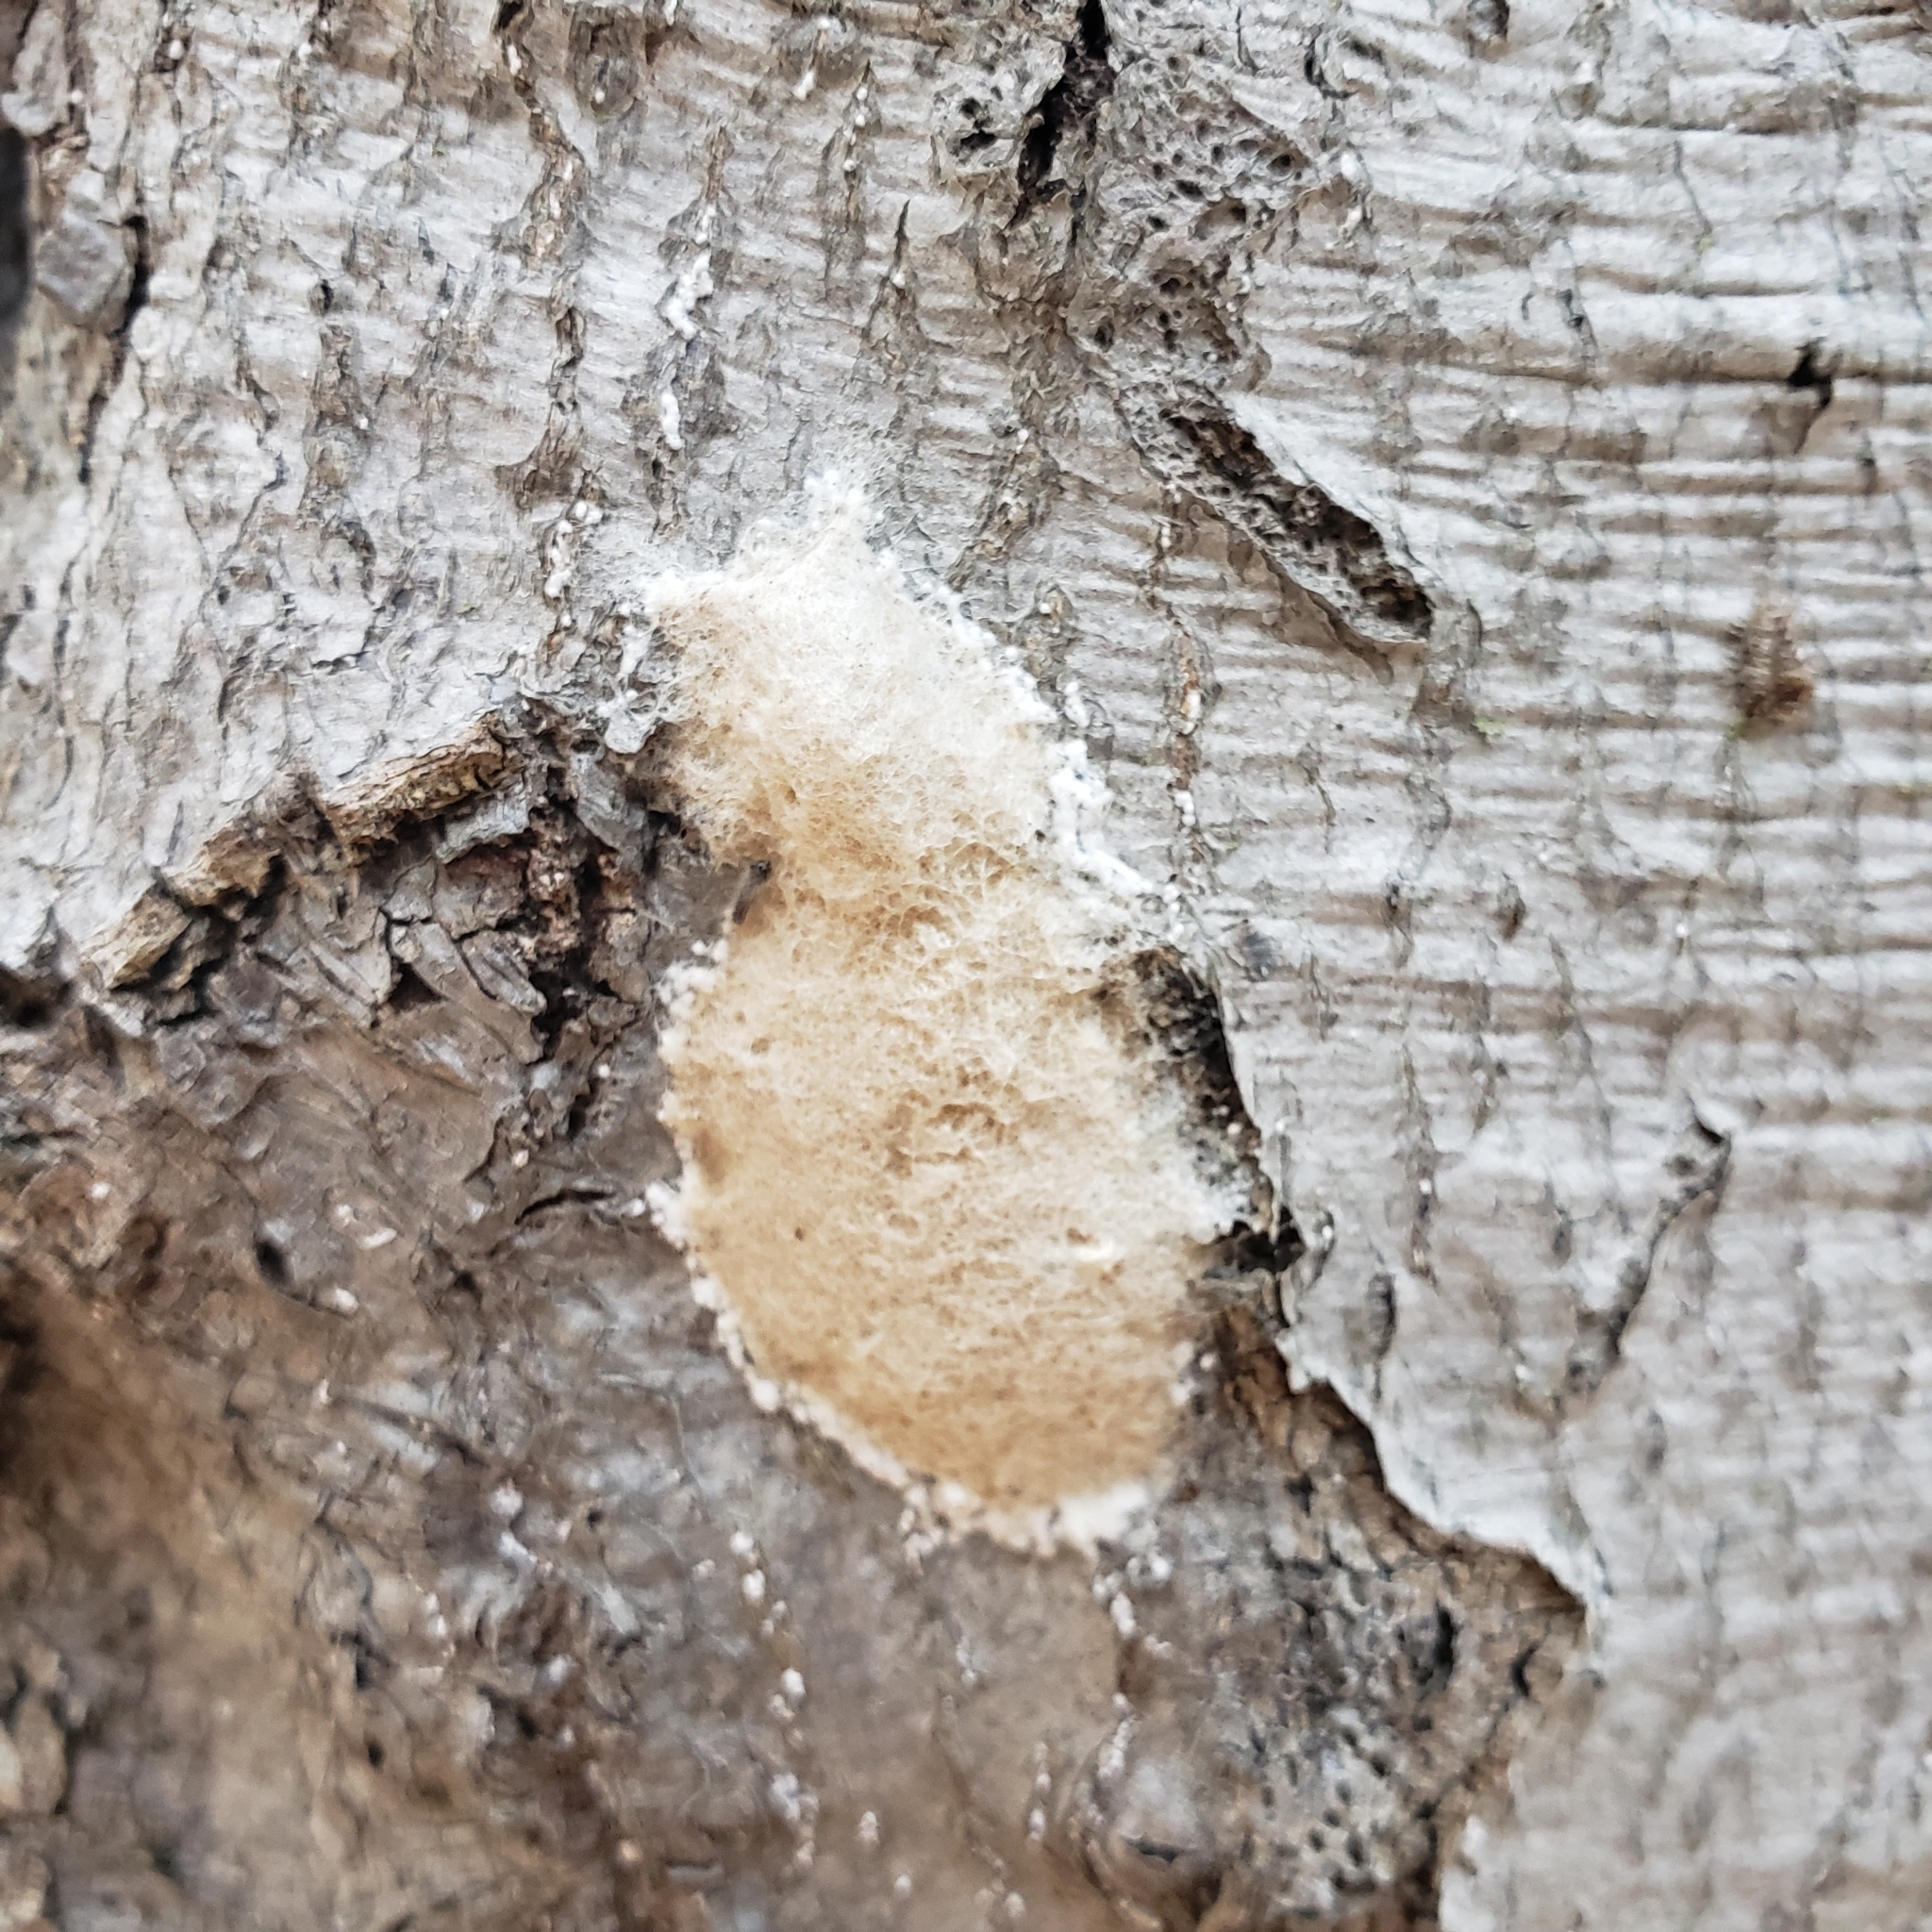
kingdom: Animalia
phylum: Arthropoda
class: Insecta
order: Lepidoptera
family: Erebidae
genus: Lymantria
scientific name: Lymantria dispar
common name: Gypsy moth
